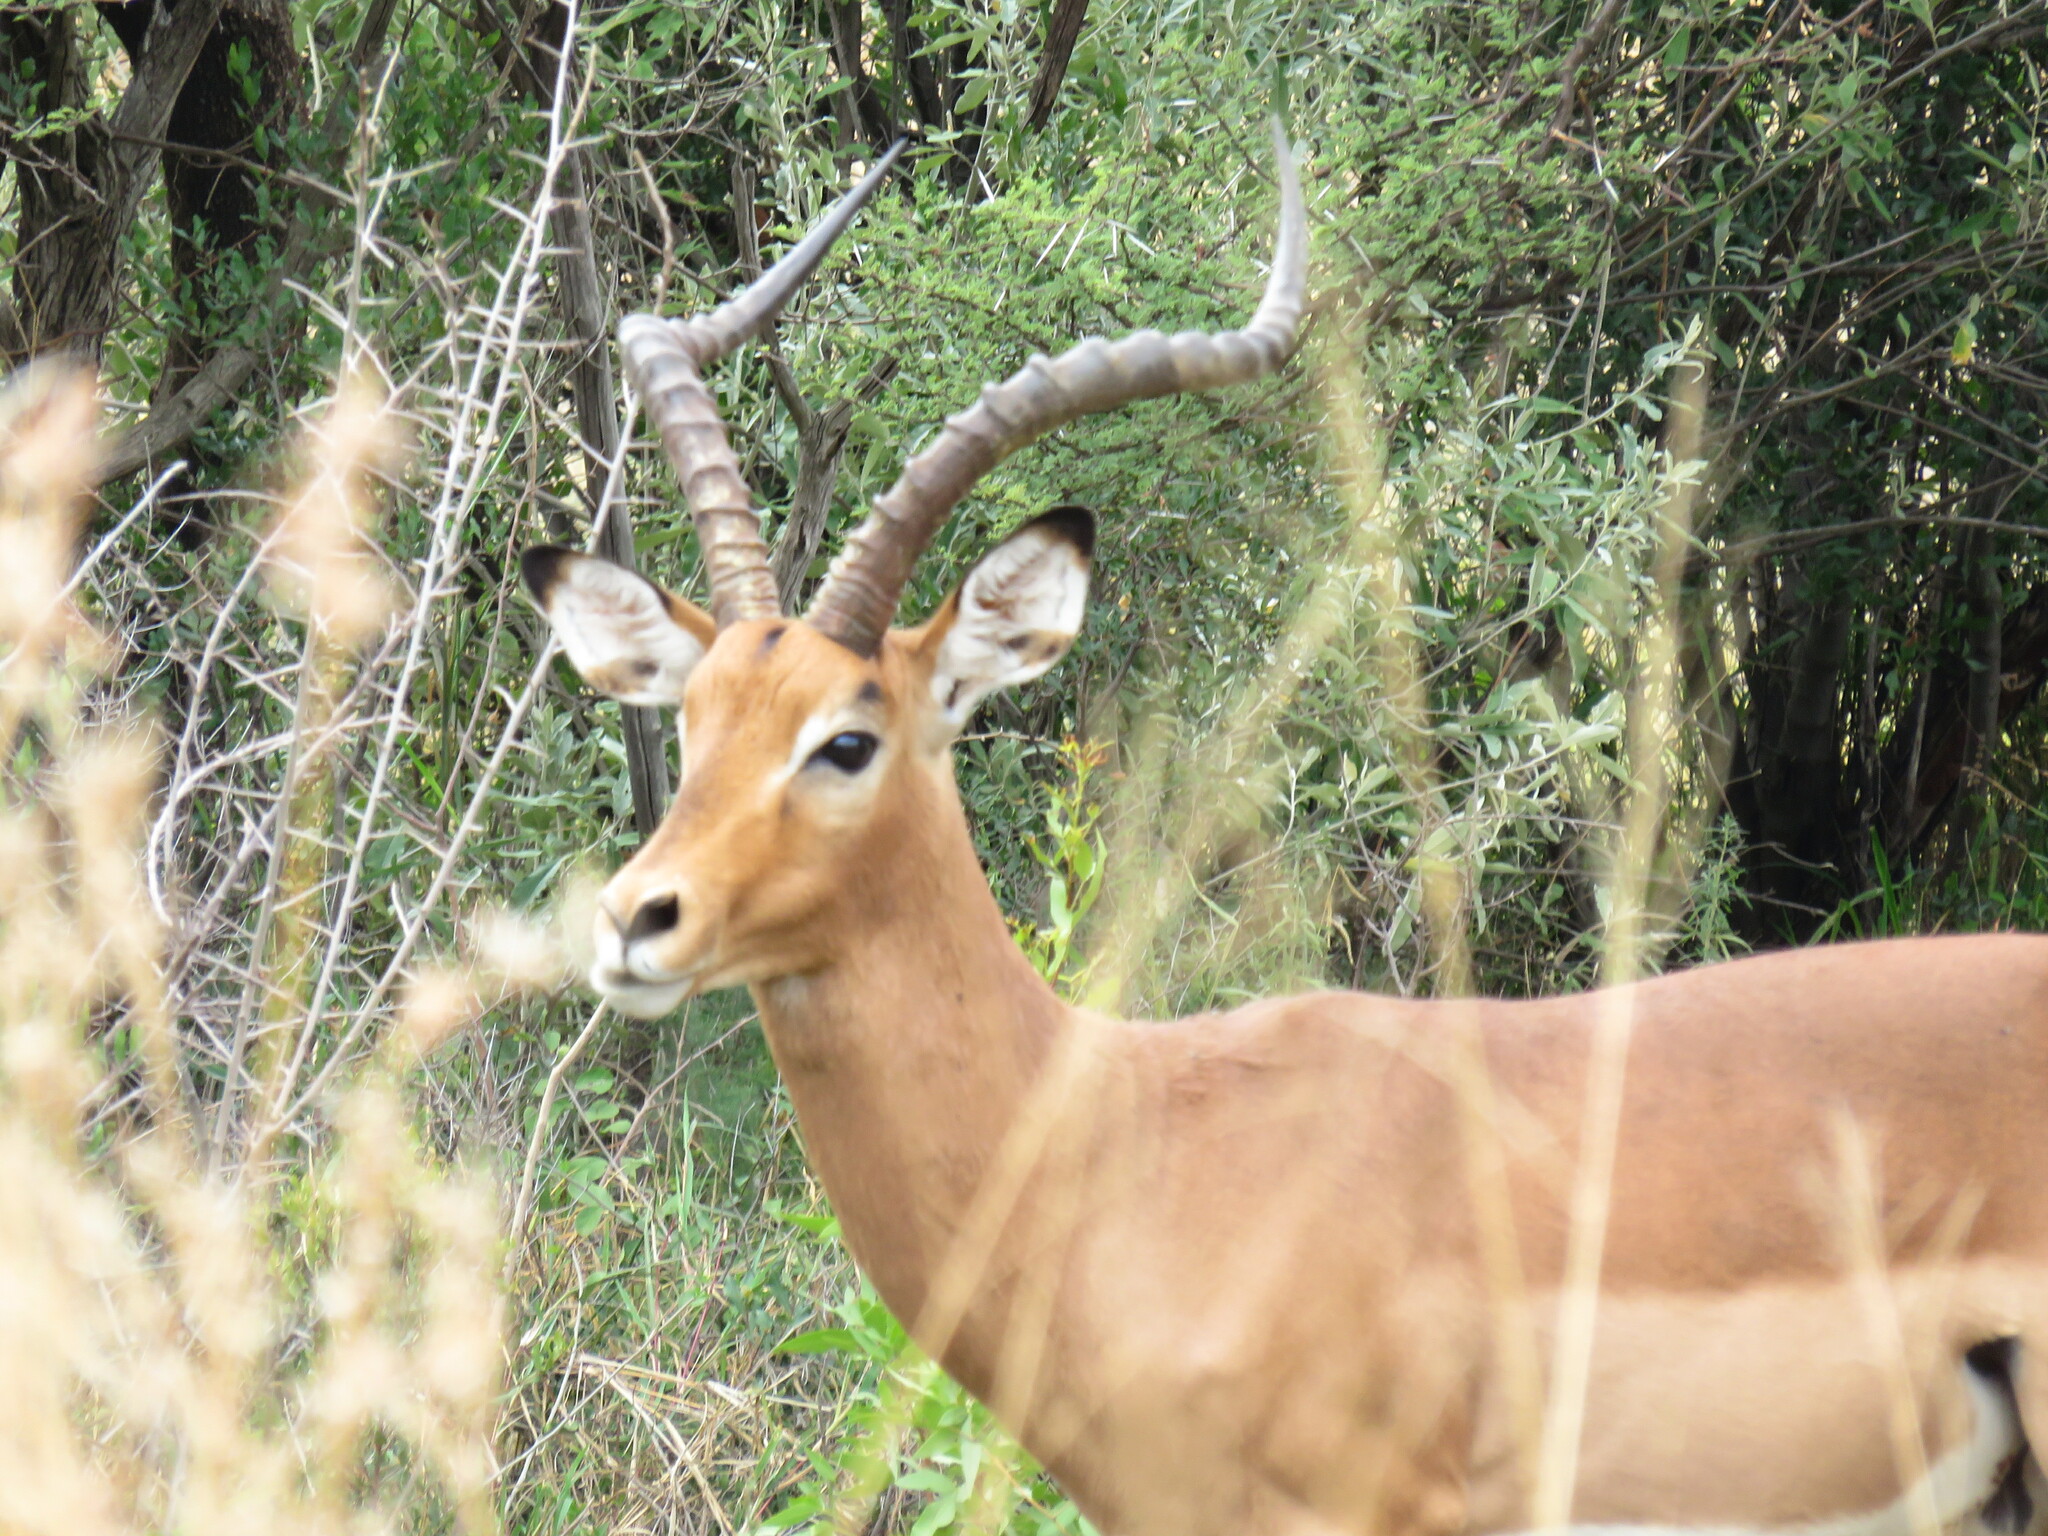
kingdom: Animalia
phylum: Chordata
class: Mammalia
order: Artiodactyla
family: Bovidae
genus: Aepyceros
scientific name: Aepyceros melampus
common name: Impala
